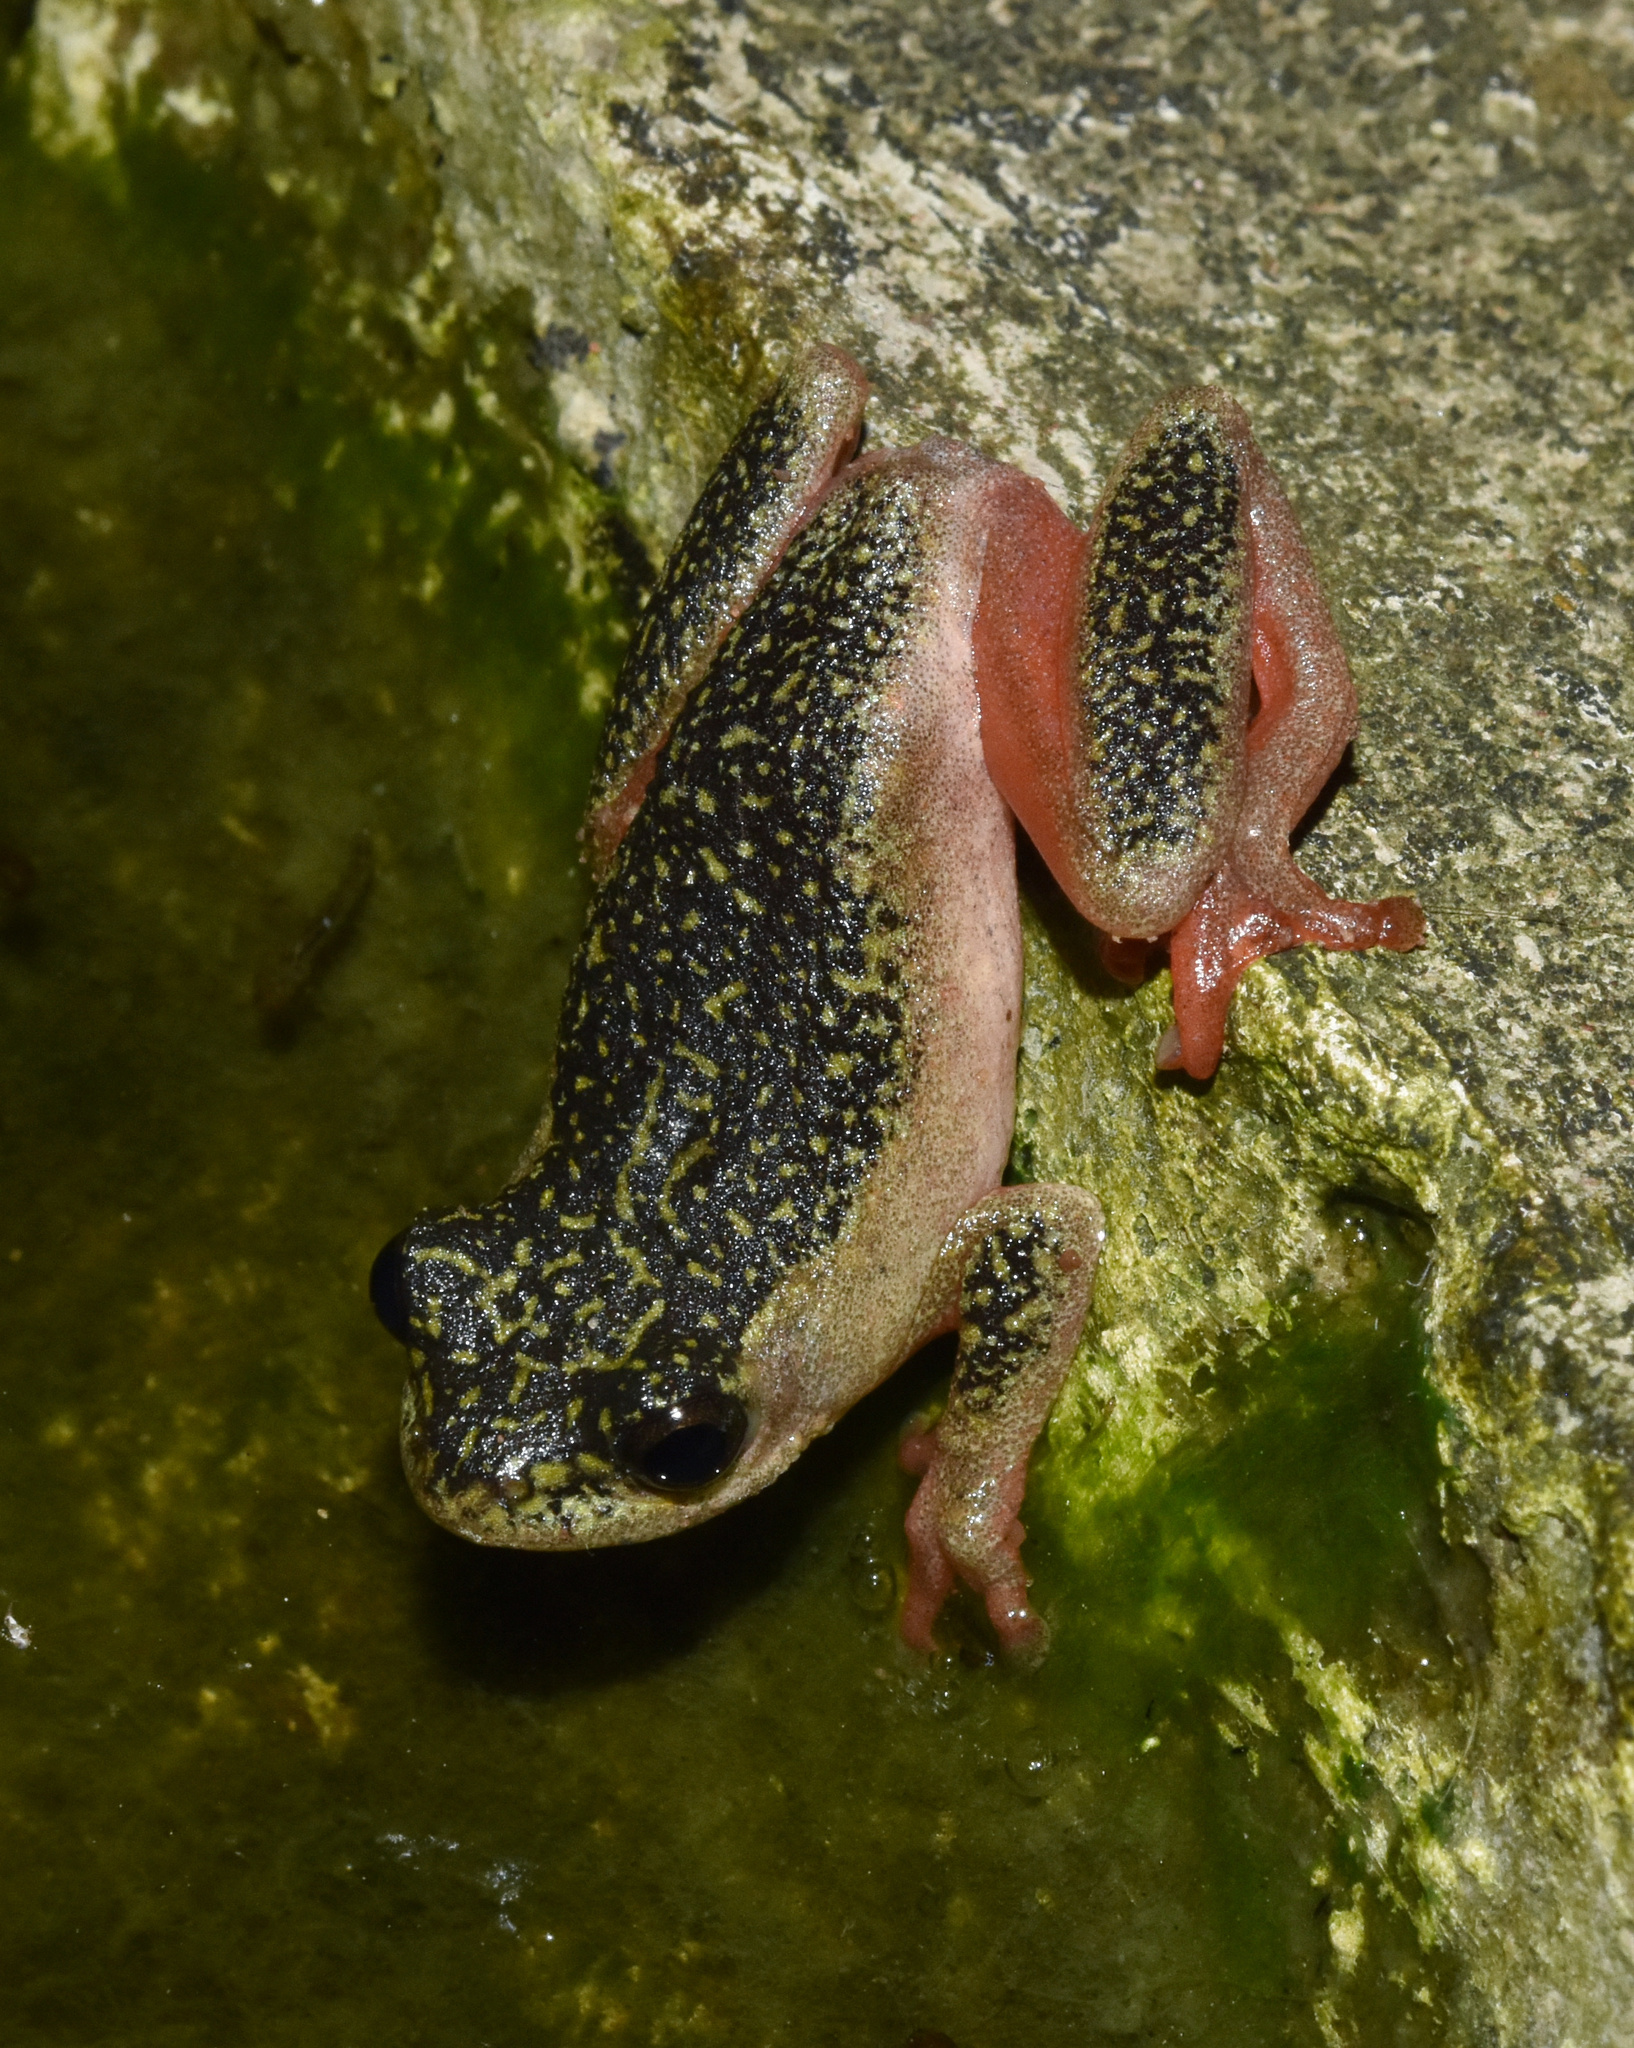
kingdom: Animalia
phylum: Chordata
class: Amphibia
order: Anura
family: Hyperoliidae
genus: Hyperolius
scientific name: Hyperolius marmoratus
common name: Painted reed frog
